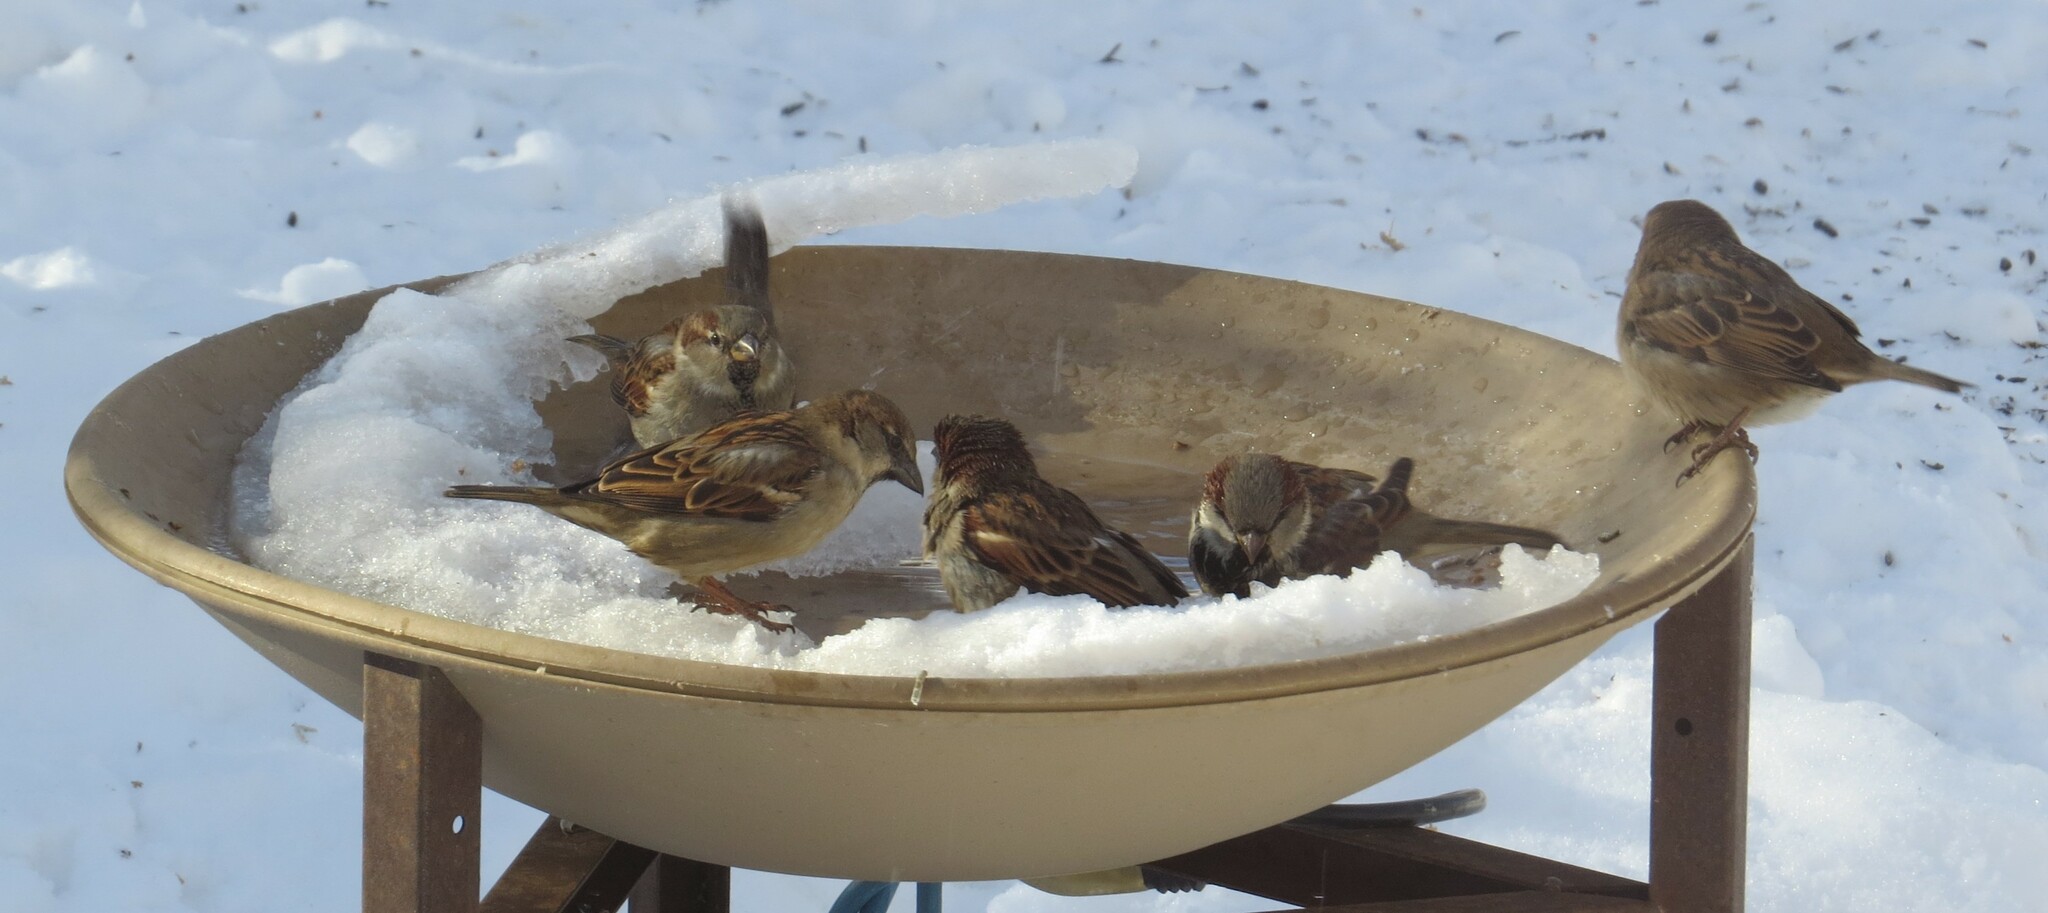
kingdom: Animalia
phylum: Chordata
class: Aves
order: Passeriformes
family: Passeridae
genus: Passer
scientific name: Passer domesticus
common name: House sparrow
